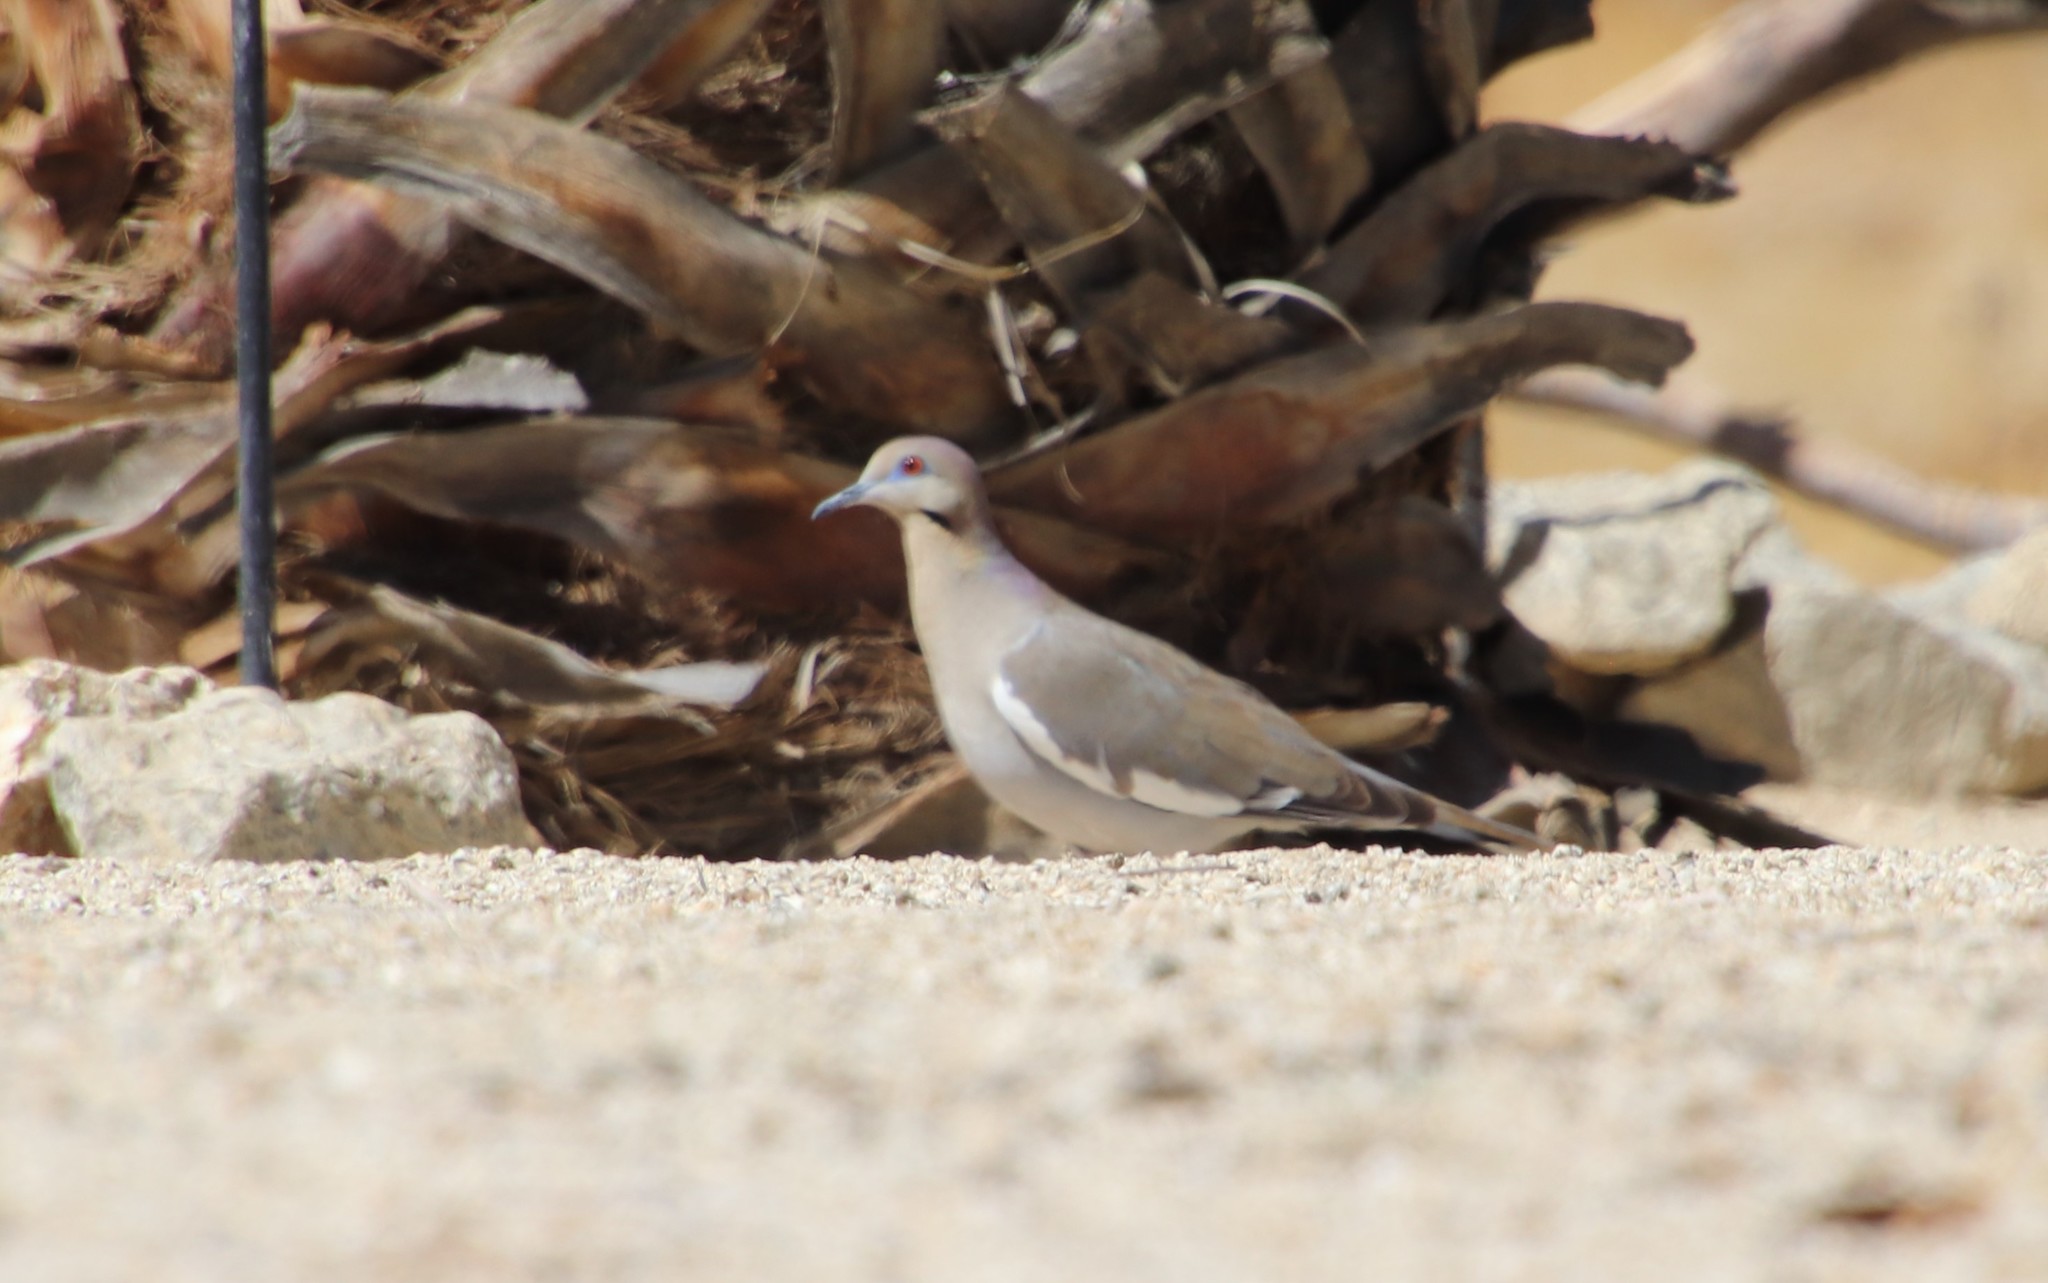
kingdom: Animalia
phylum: Chordata
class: Aves
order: Columbiformes
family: Columbidae
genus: Zenaida
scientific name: Zenaida asiatica
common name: White-winged dove
